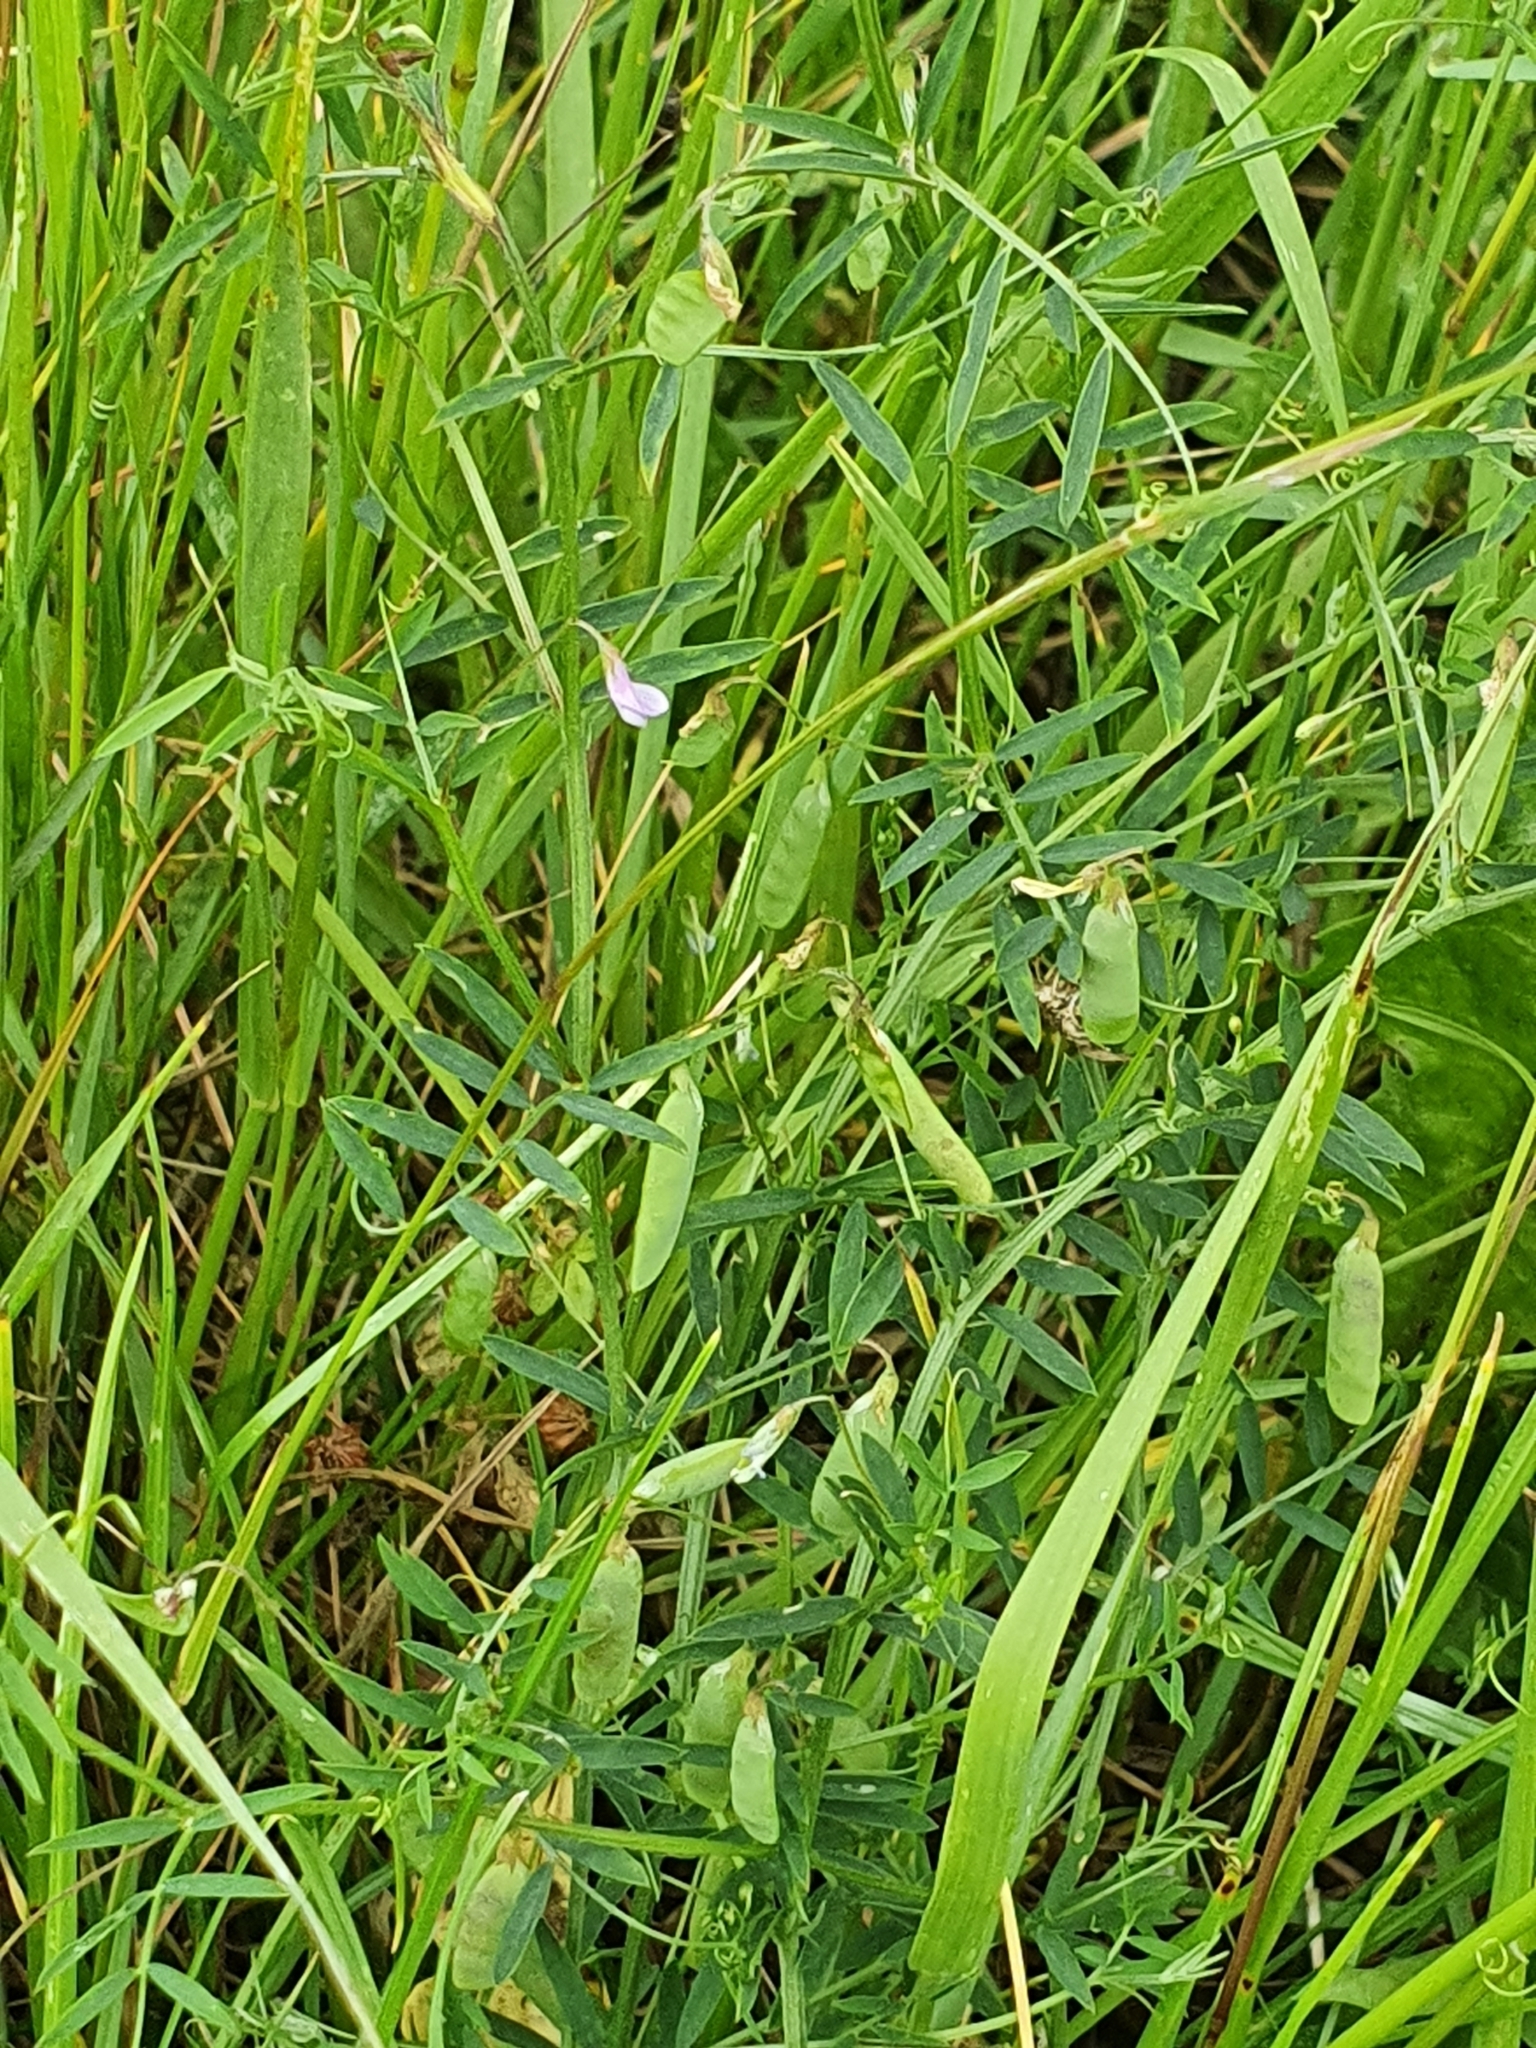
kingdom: Plantae
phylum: Tracheophyta
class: Magnoliopsida
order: Fabales
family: Fabaceae
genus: Vicia
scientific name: Vicia tetrasperma
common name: Smooth tare
